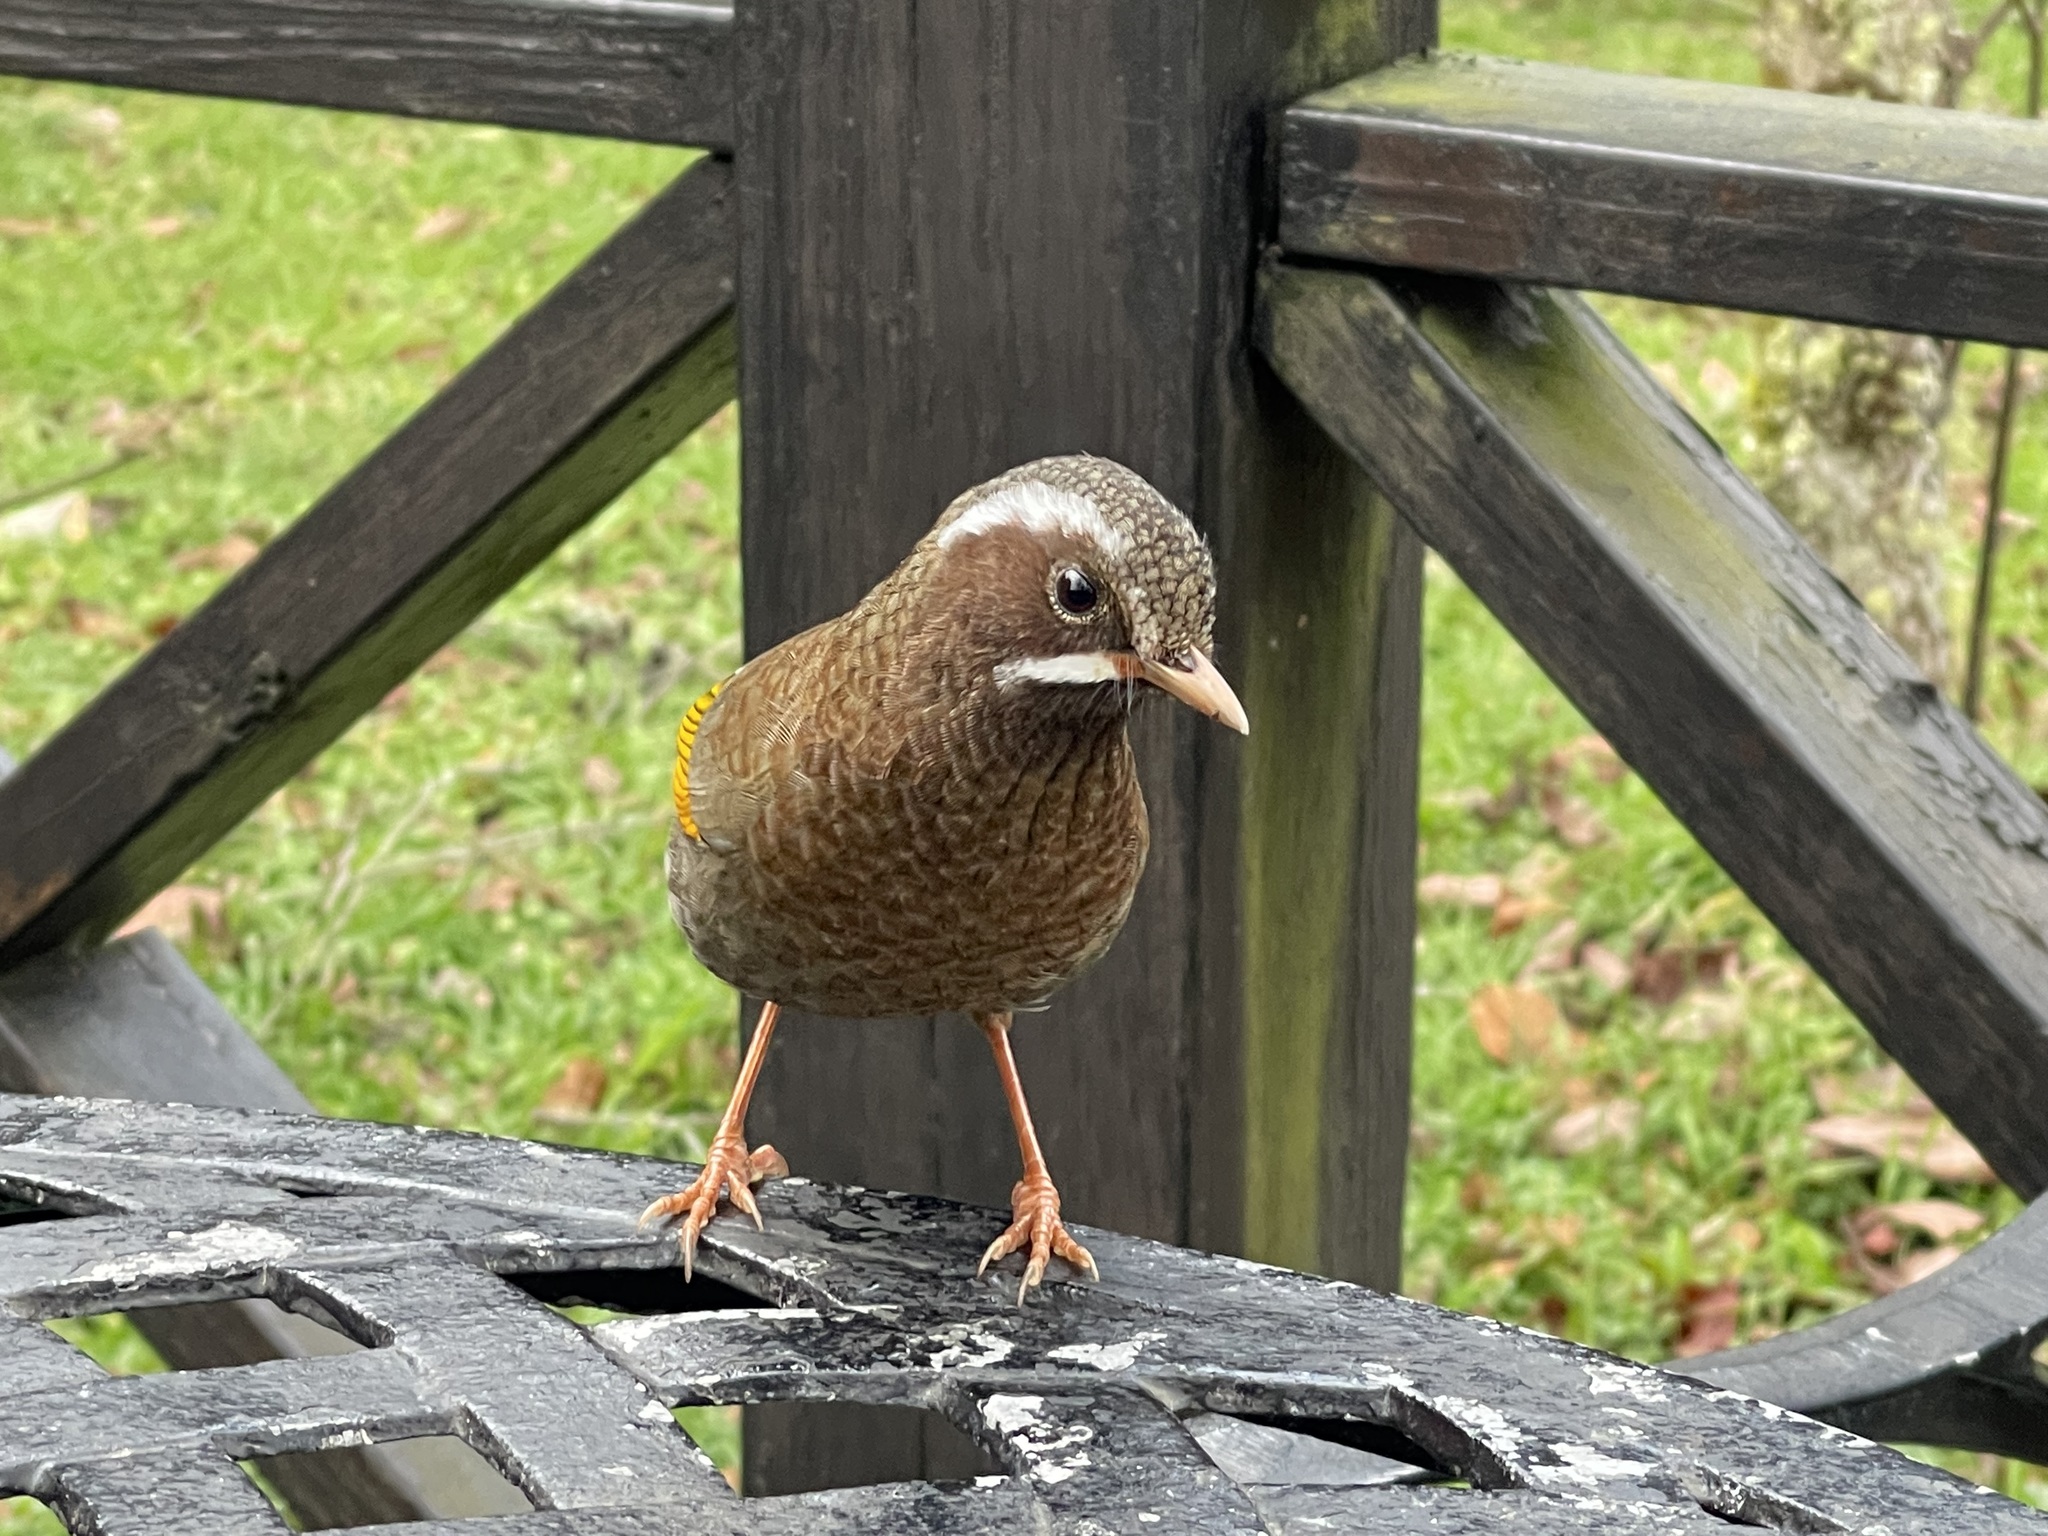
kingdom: Animalia
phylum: Chordata
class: Aves
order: Passeriformes
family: Leiothrichidae
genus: Trochalopteron
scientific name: Trochalopteron morrisonianum
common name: White-whiskered laughingthrush
